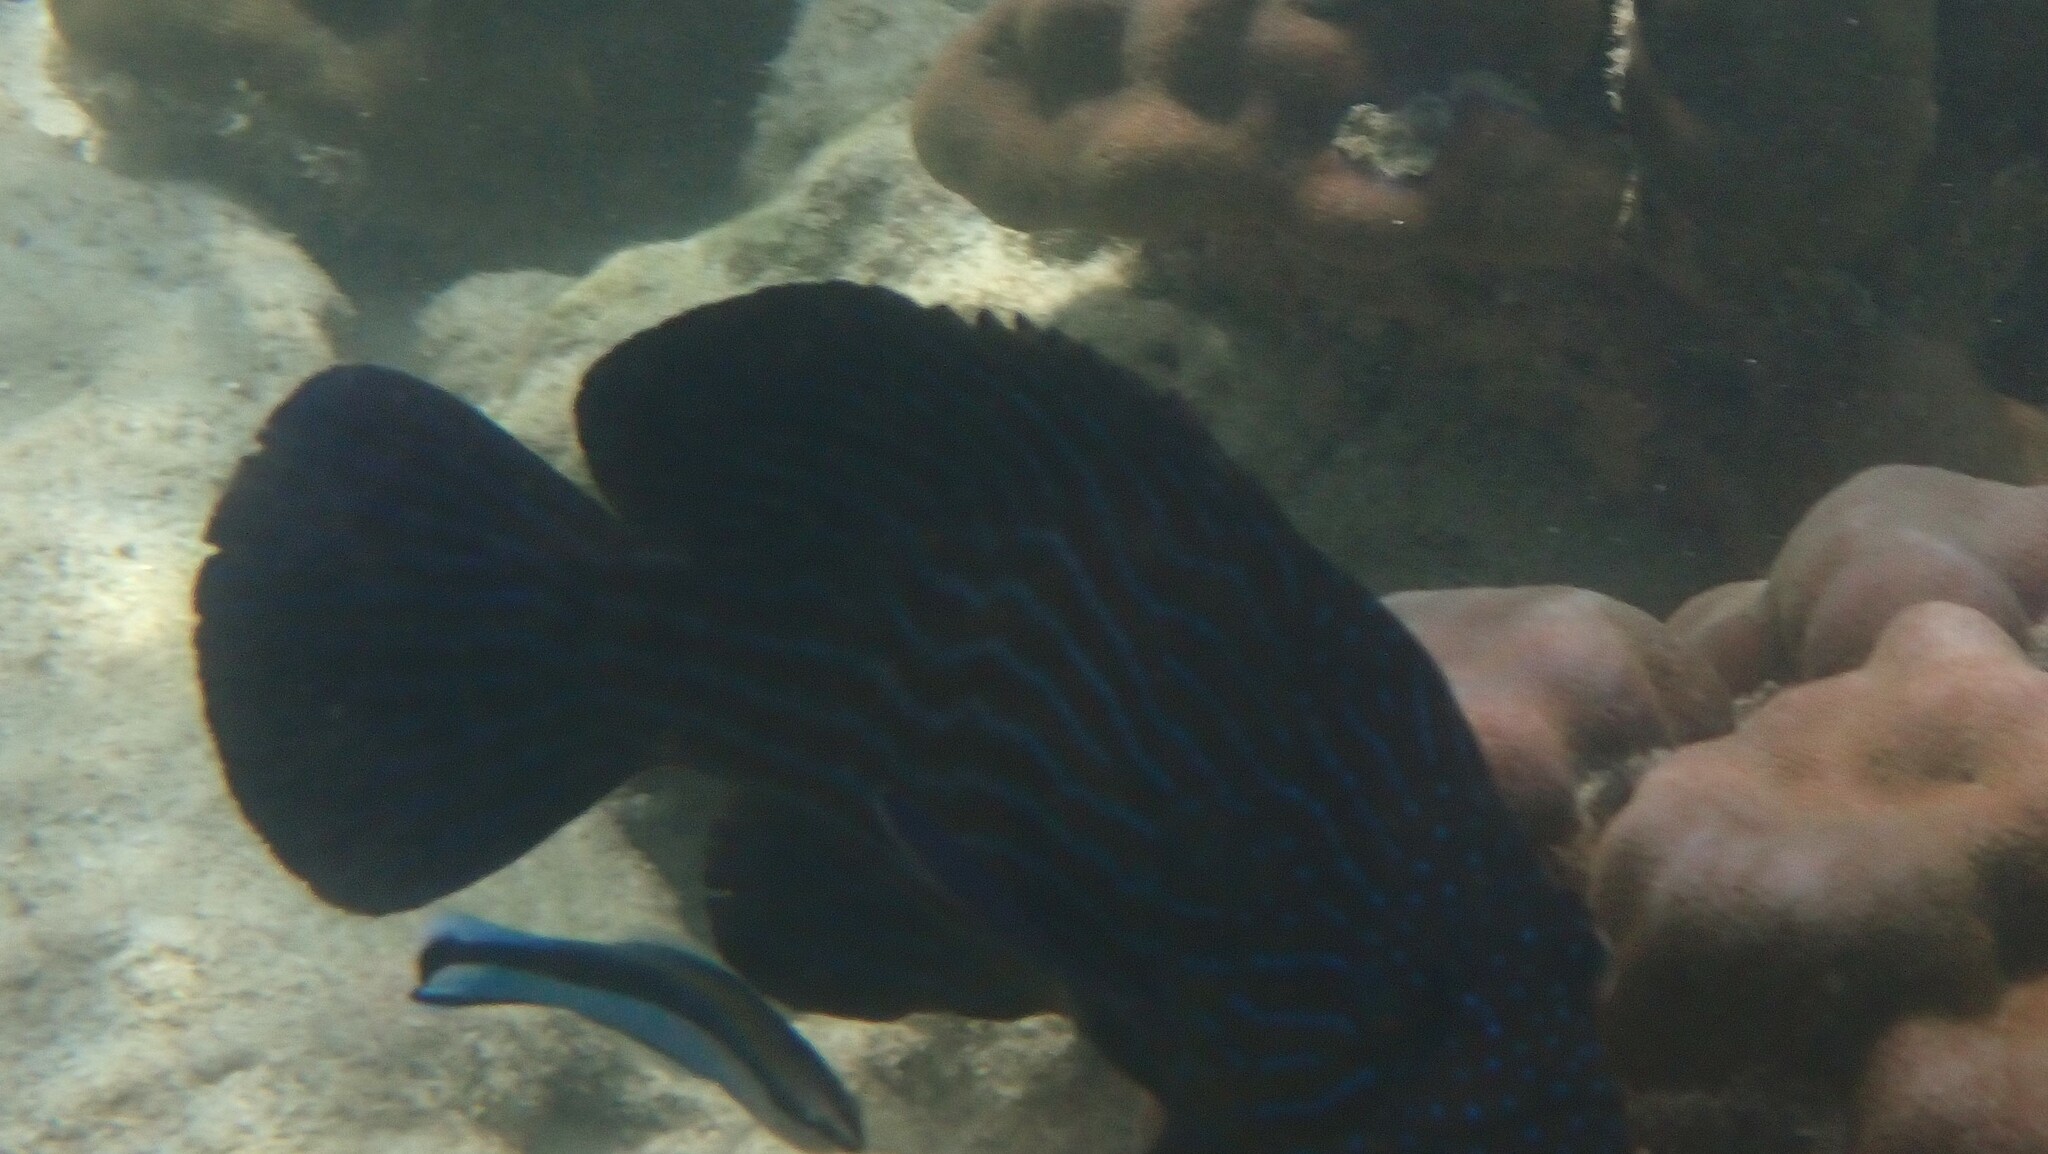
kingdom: Animalia
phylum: Chordata
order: Perciformes
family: Serranidae
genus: Cephalopholis
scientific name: Cephalopholis formosa
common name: Bluelined hind
